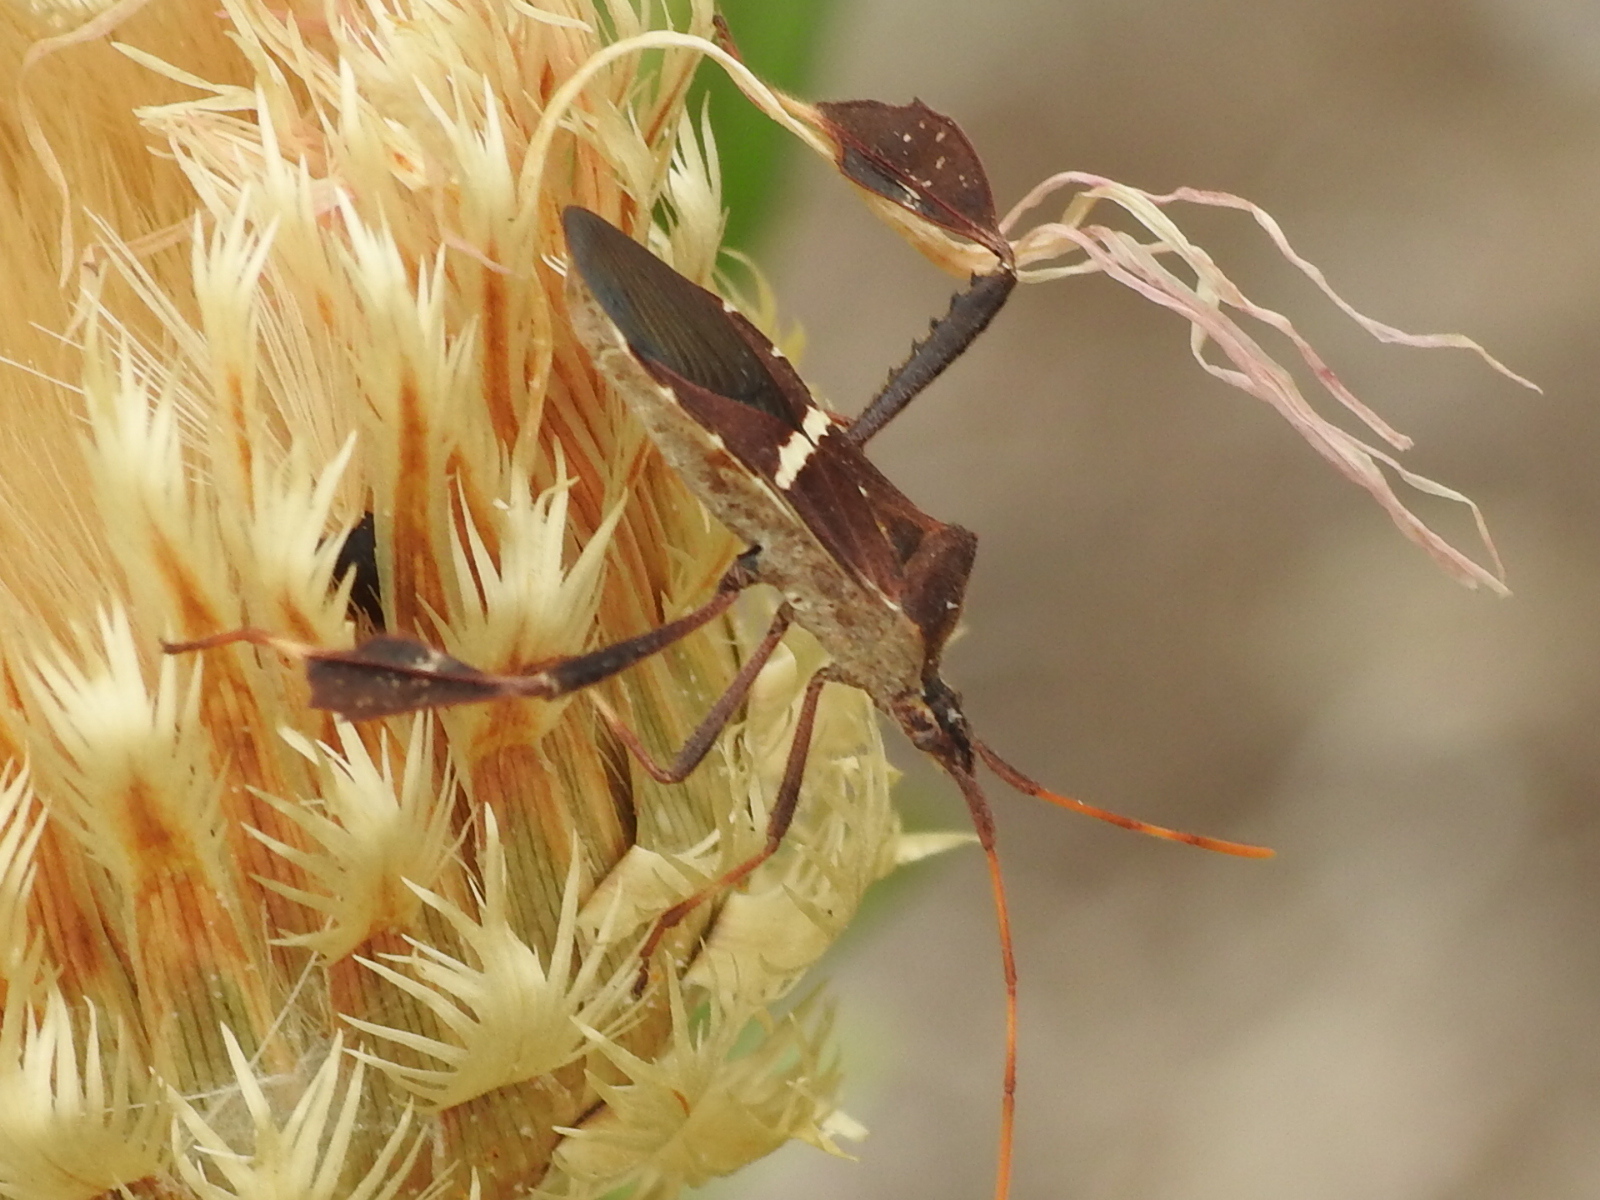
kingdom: Animalia
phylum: Arthropoda
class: Insecta
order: Hemiptera
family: Coreidae
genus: Leptoglossus
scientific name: Leptoglossus phyllopus
